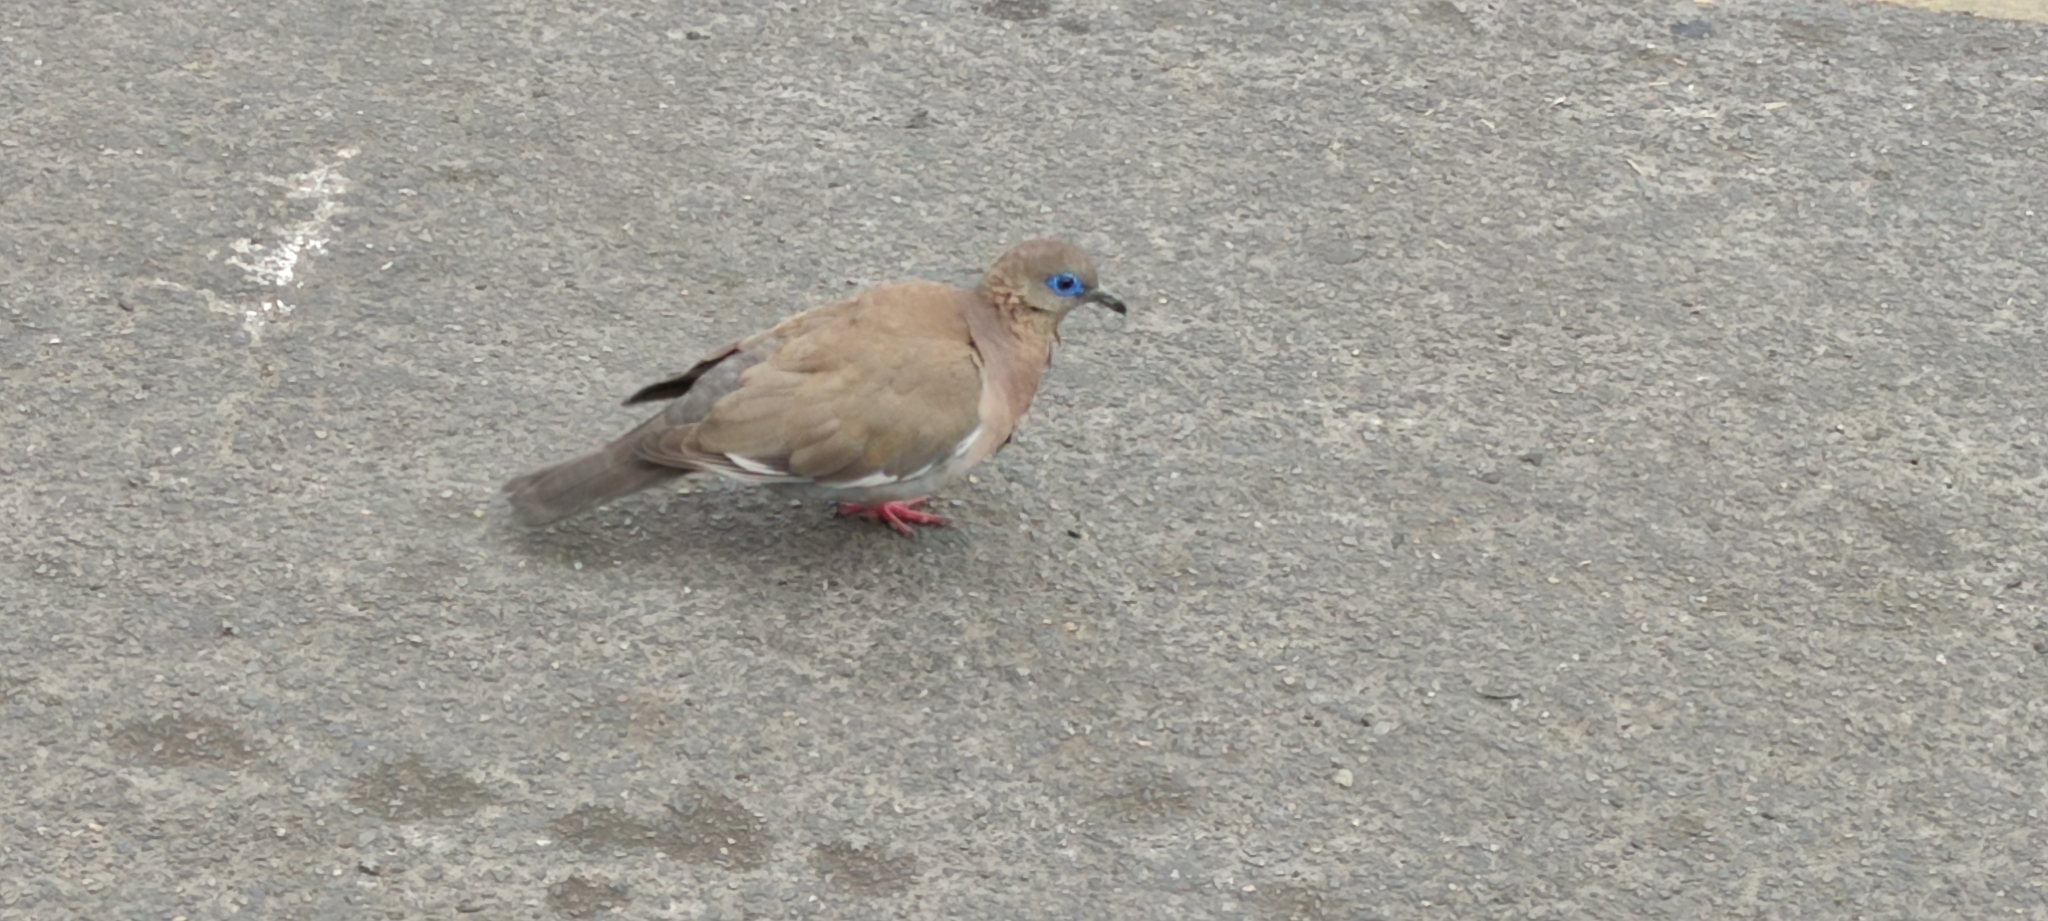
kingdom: Animalia
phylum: Chordata
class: Aves
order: Columbiformes
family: Columbidae
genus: Zenaida
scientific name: Zenaida meloda
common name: West peruvian dove
